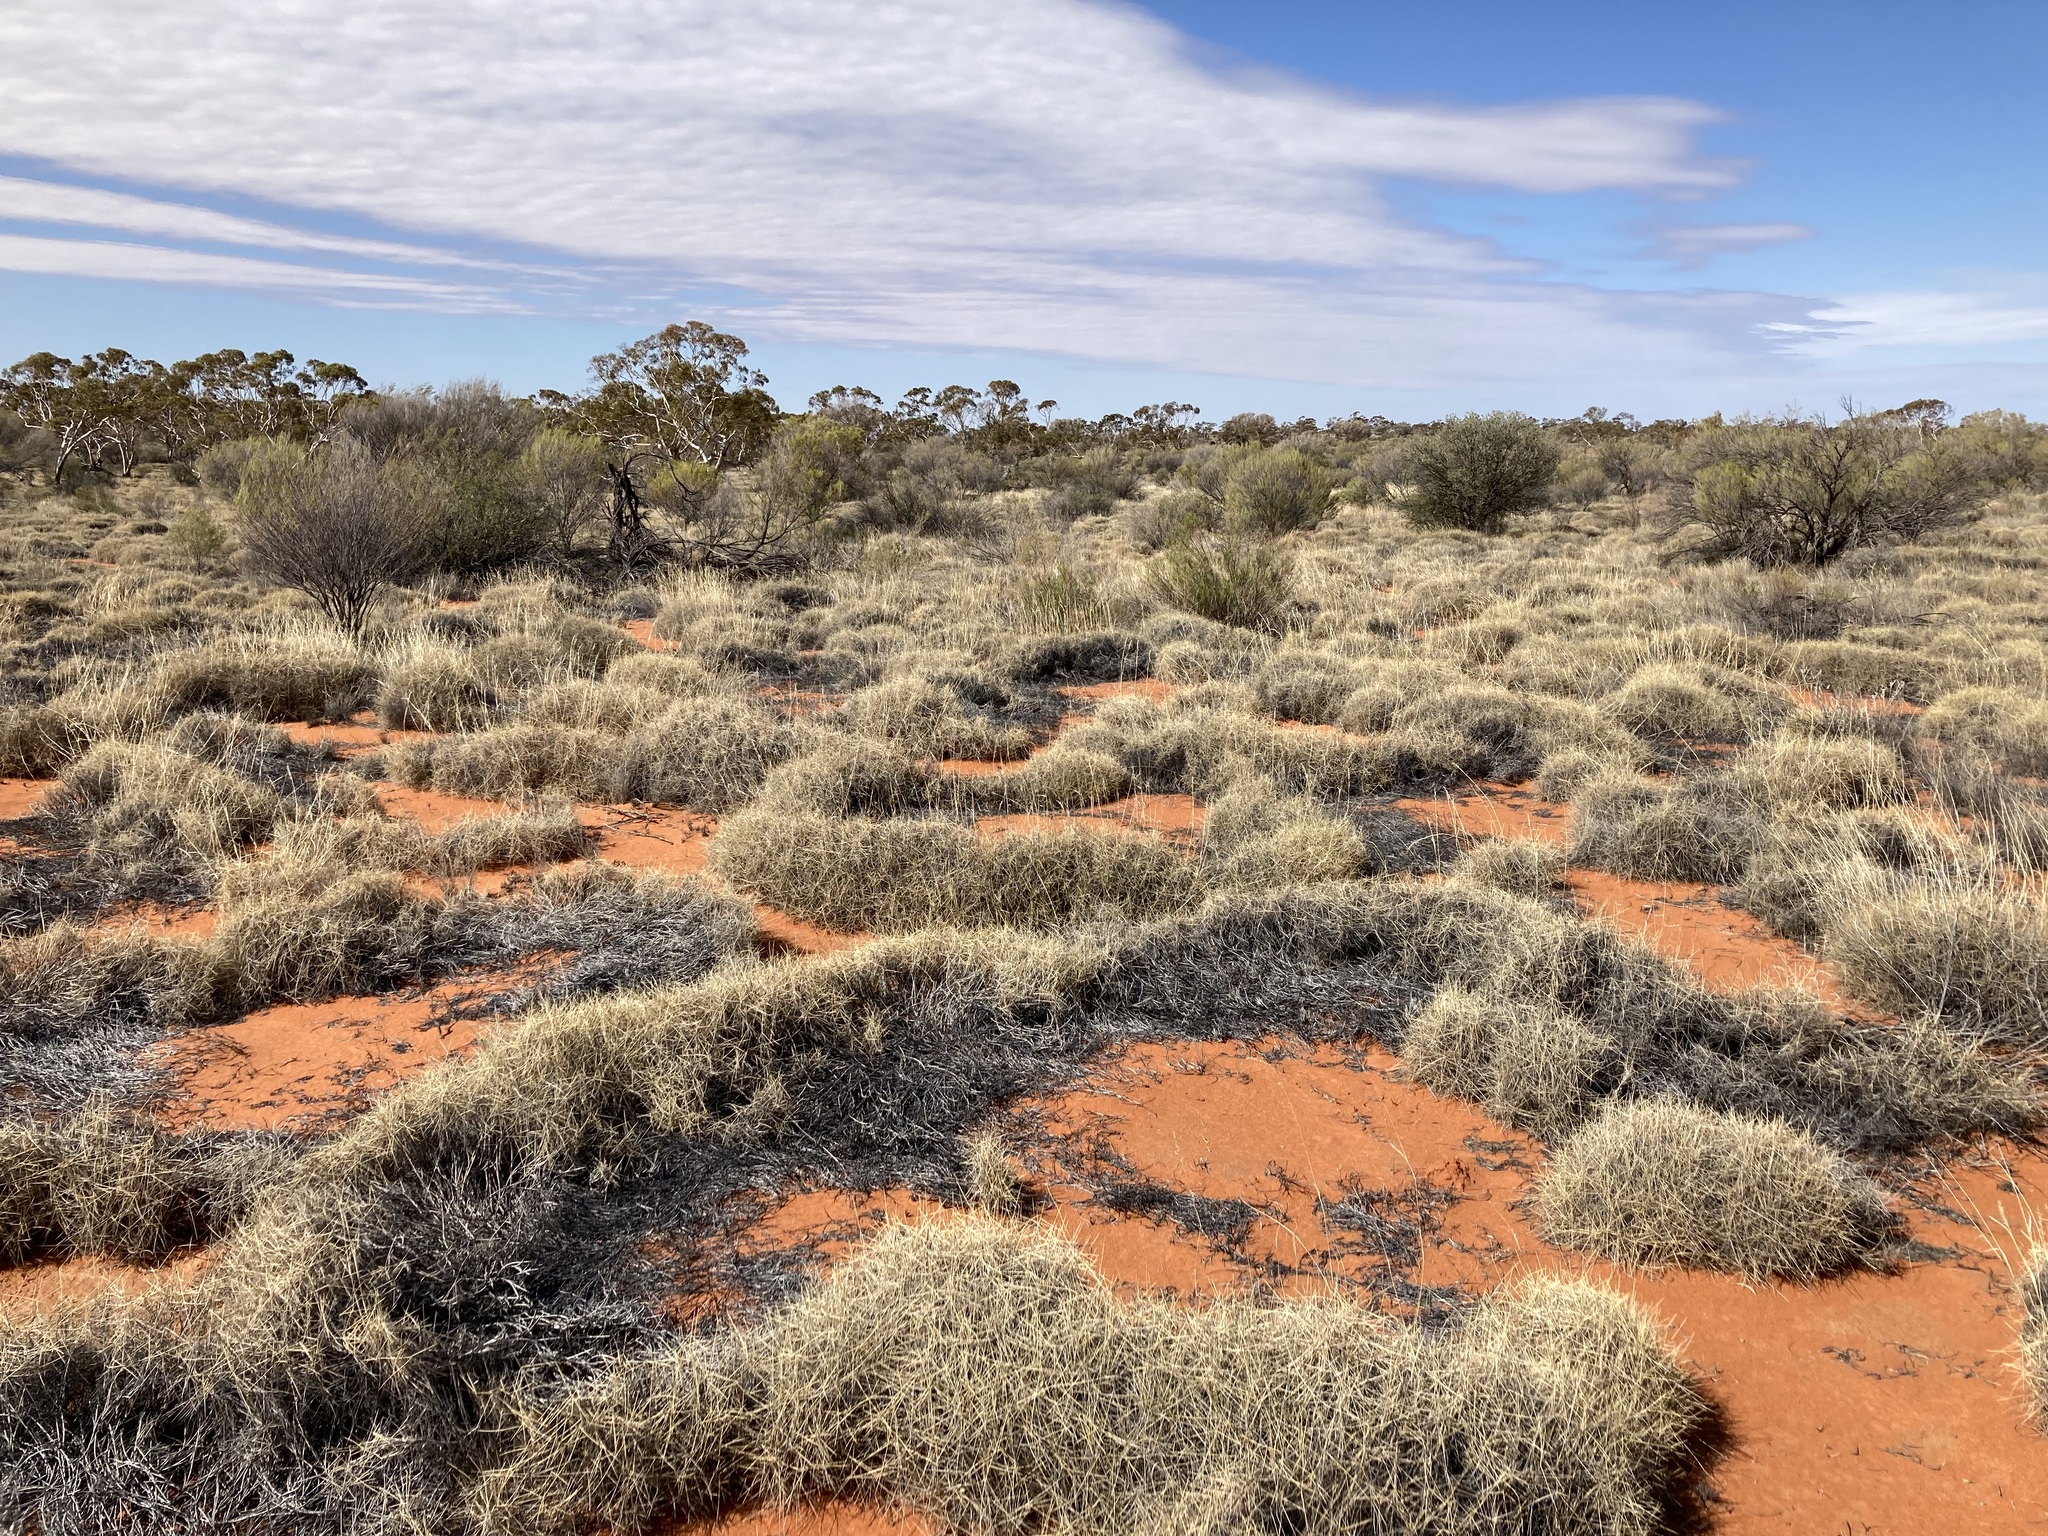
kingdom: Plantae
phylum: Tracheophyta
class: Liliopsida
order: Poales
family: Poaceae
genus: Triodia
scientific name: Triodia basedowii
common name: Hard spinifex
